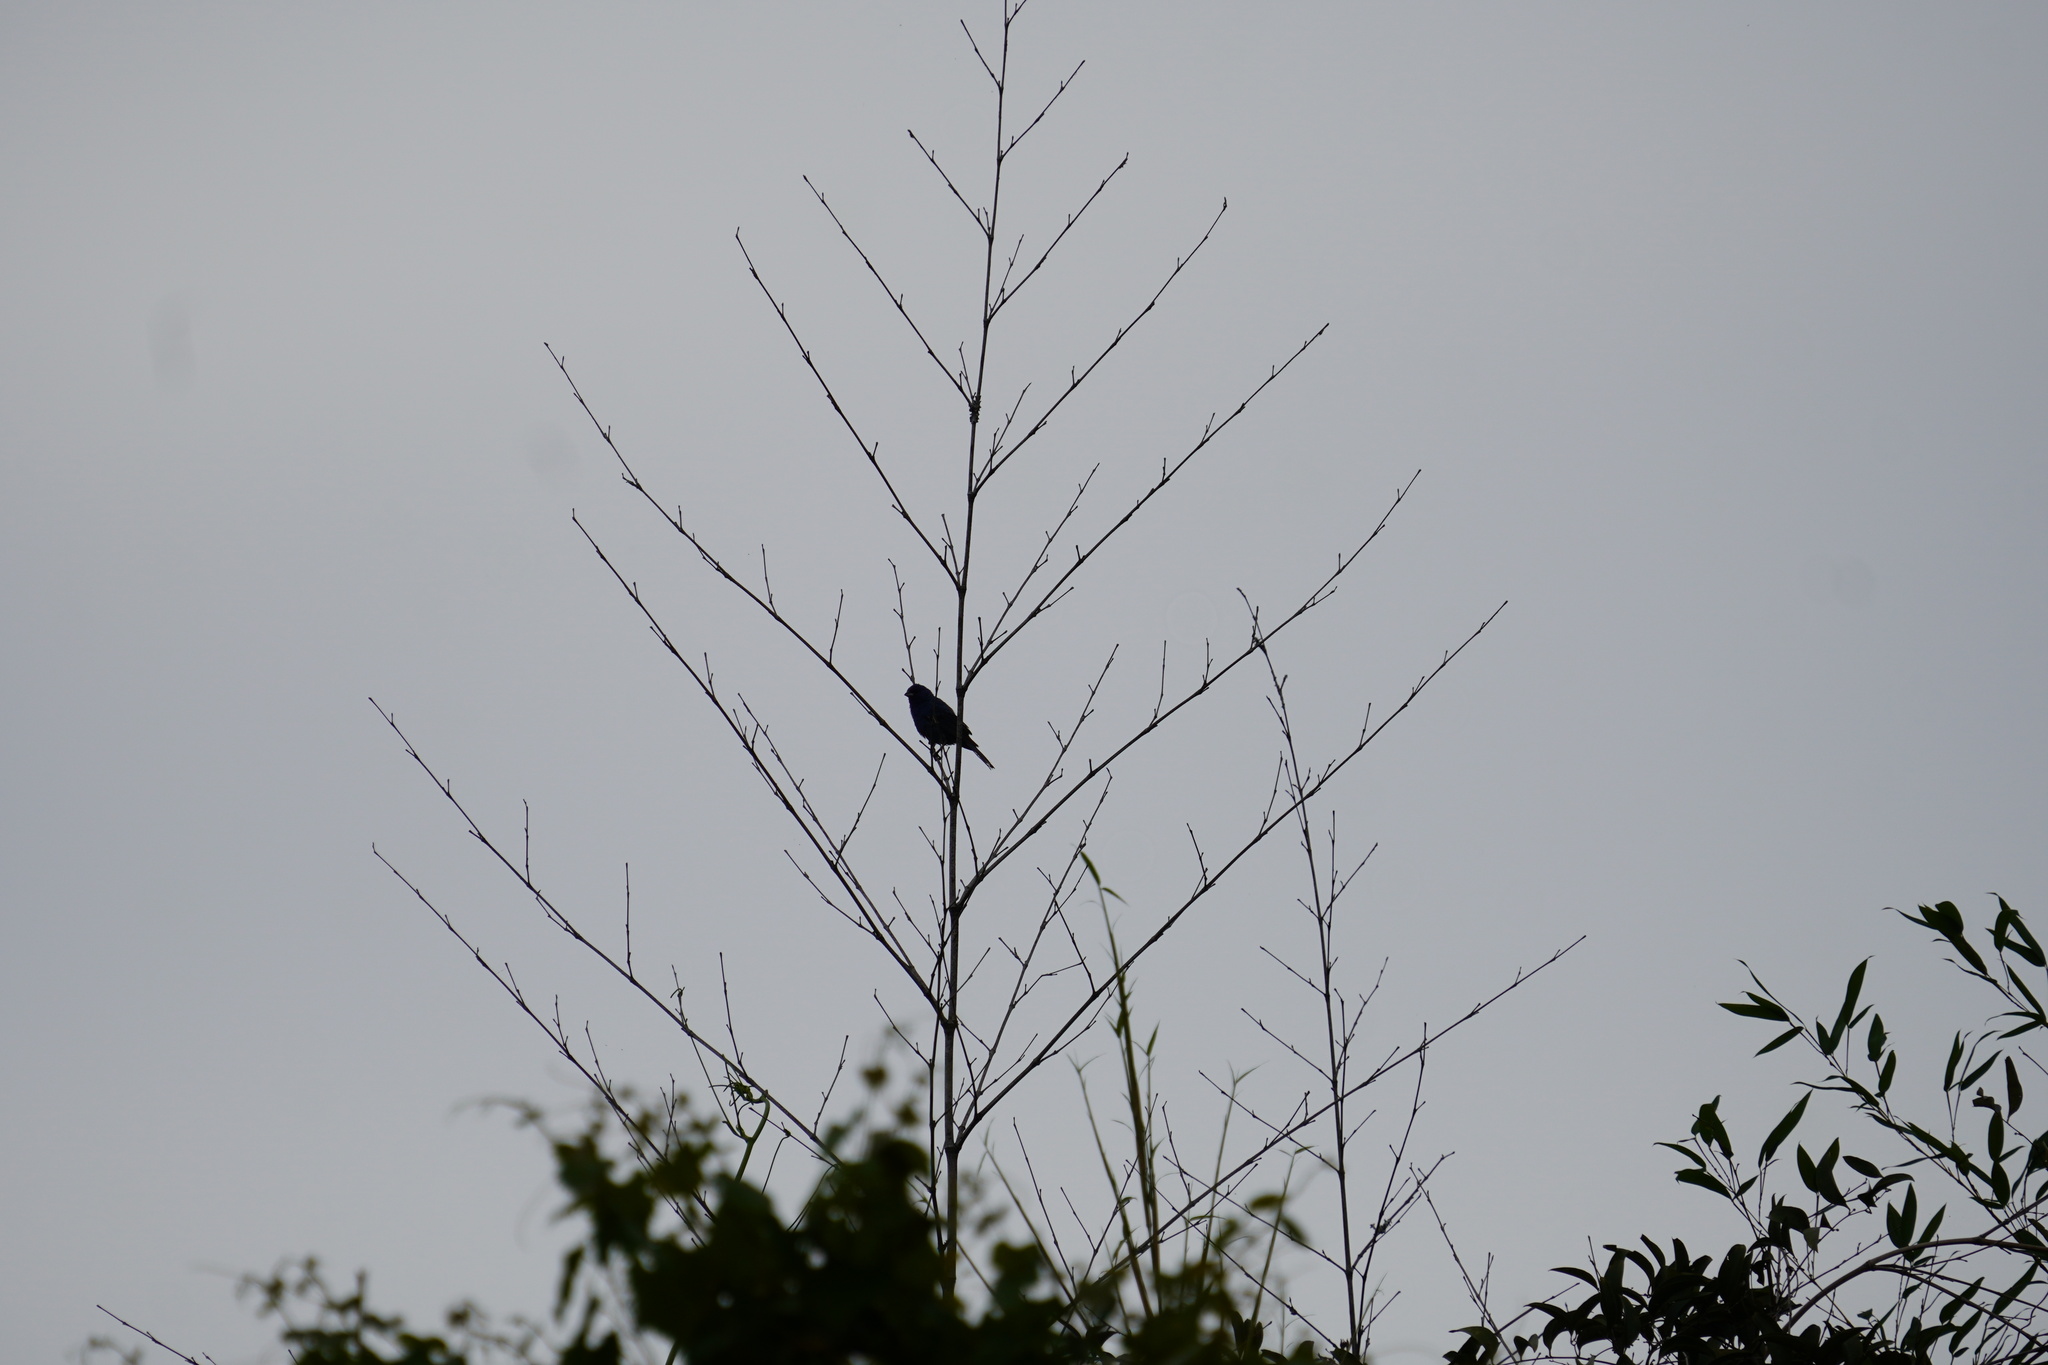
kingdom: Animalia
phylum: Chordata
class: Aves
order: Passeriformes
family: Cardinalidae
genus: Passerina
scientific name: Passerina cyanea
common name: Indigo bunting
